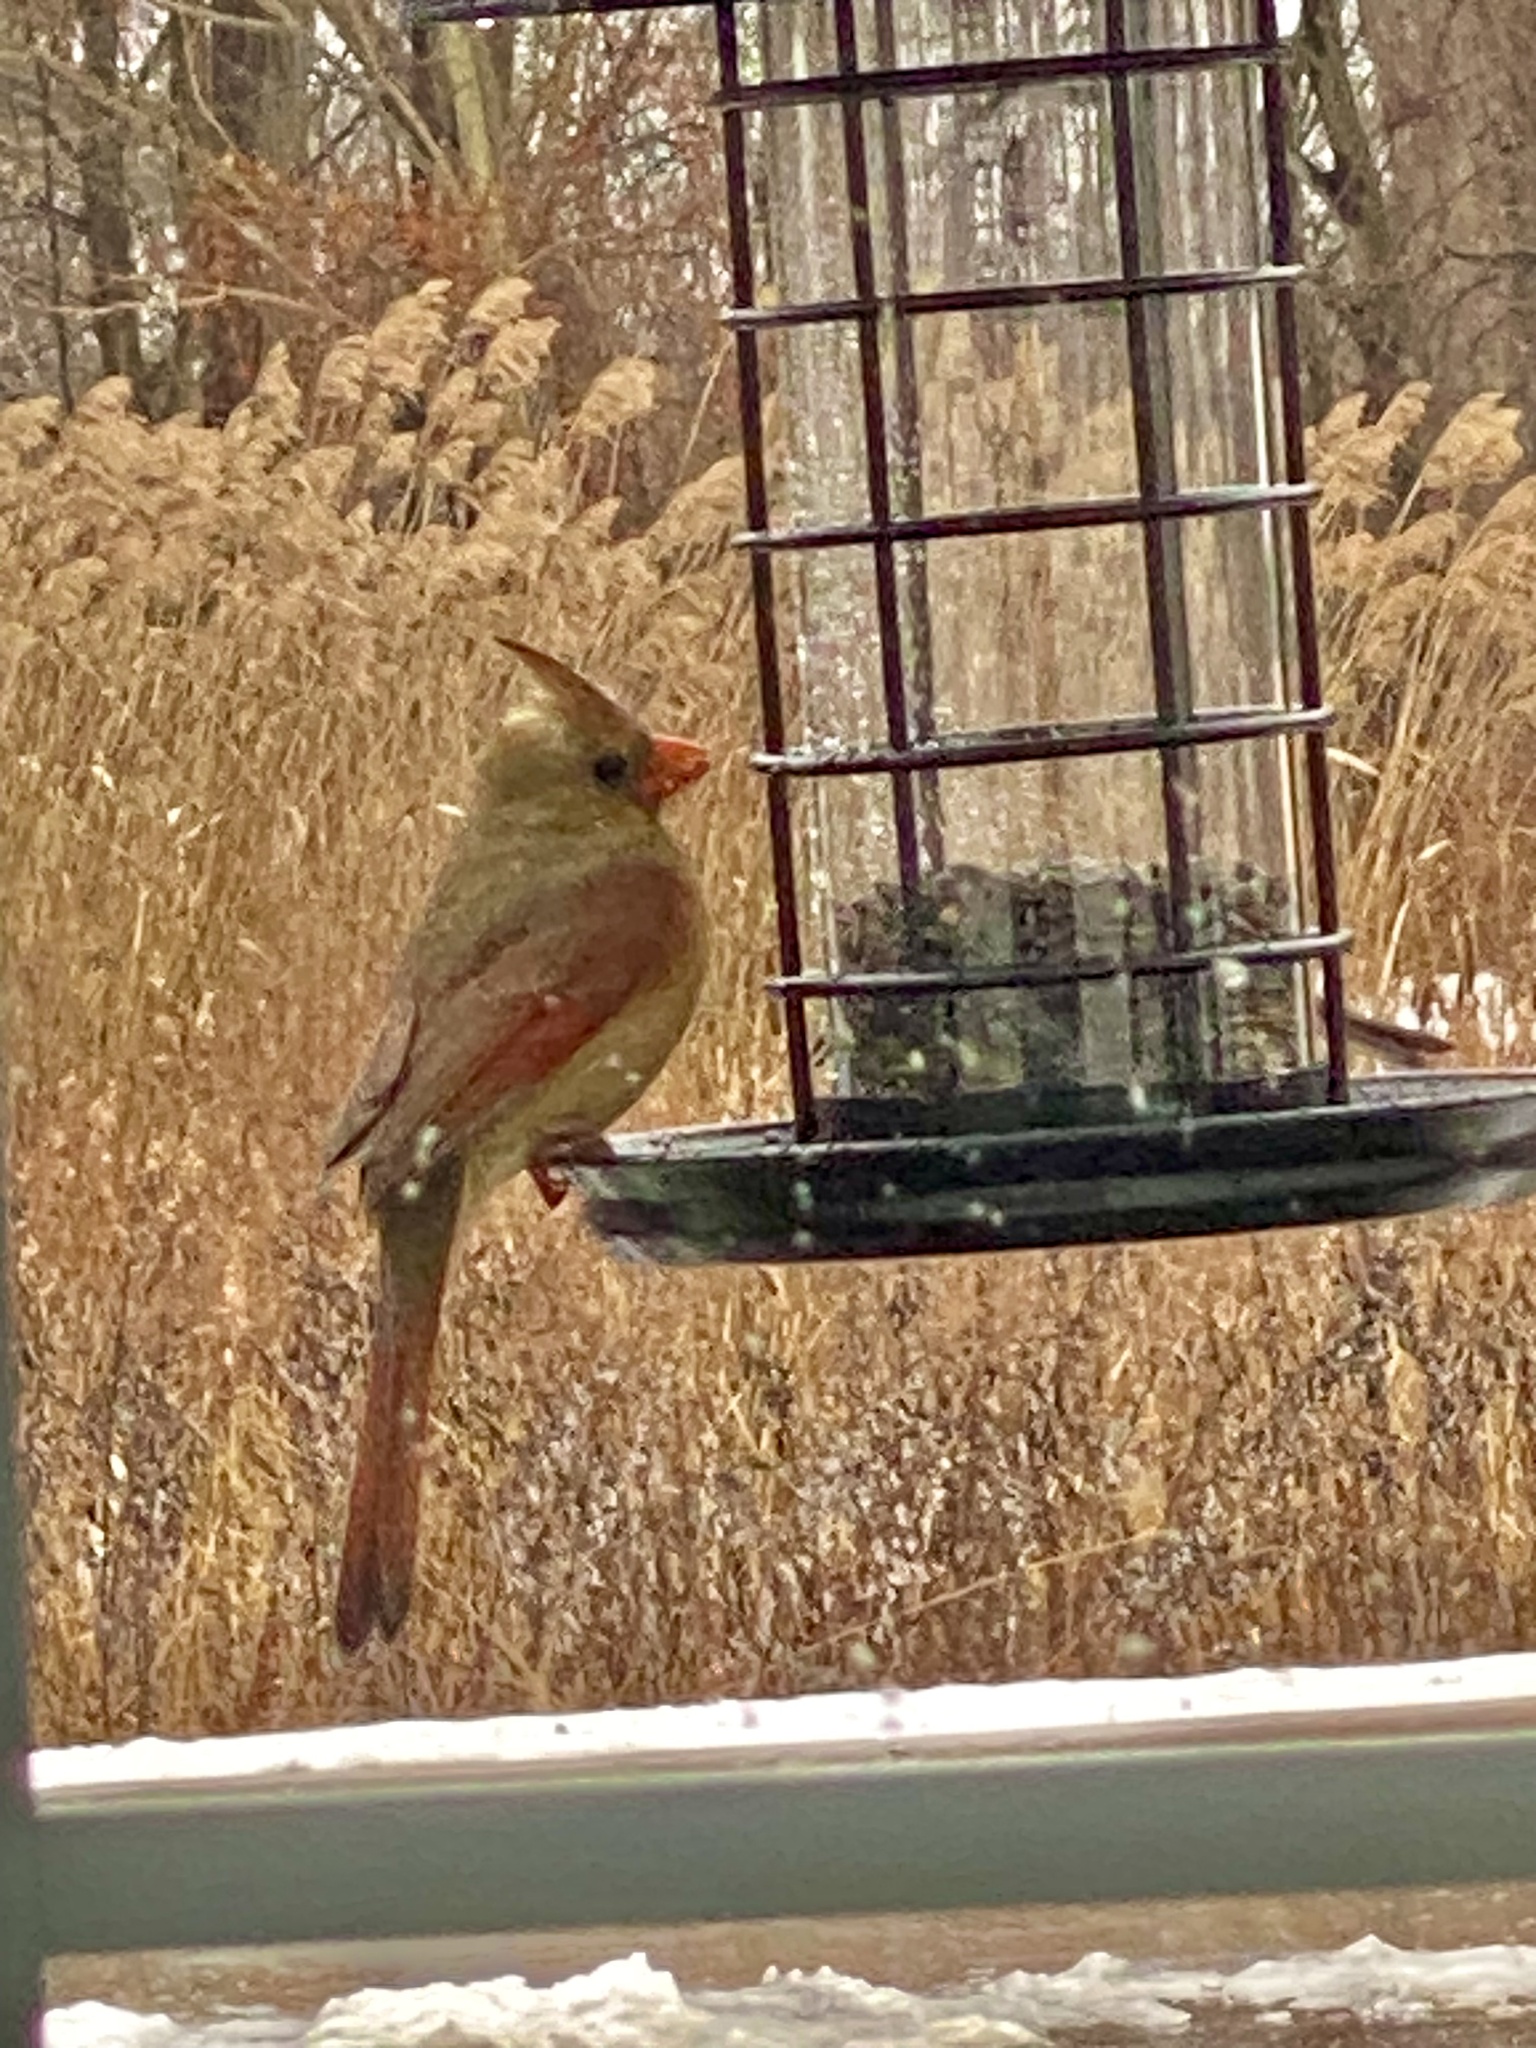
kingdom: Animalia
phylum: Chordata
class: Aves
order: Passeriformes
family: Cardinalidae
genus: Cardinalis
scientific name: Cardinalis cardinalis
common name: Northern cardinal
